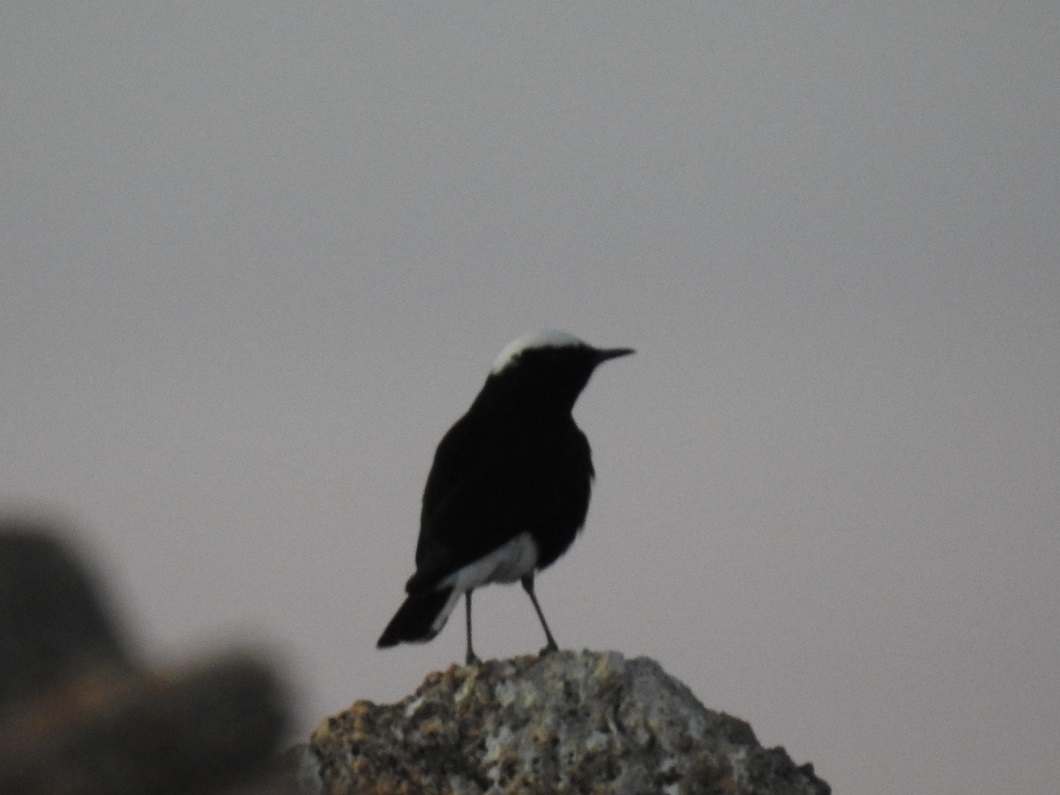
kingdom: Animalia
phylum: Chordata
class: Aves
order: Passeriformes
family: Muscicapidae
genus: Oenanthe
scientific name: Oenanthe leucopyga
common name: White-crowned wheatear
